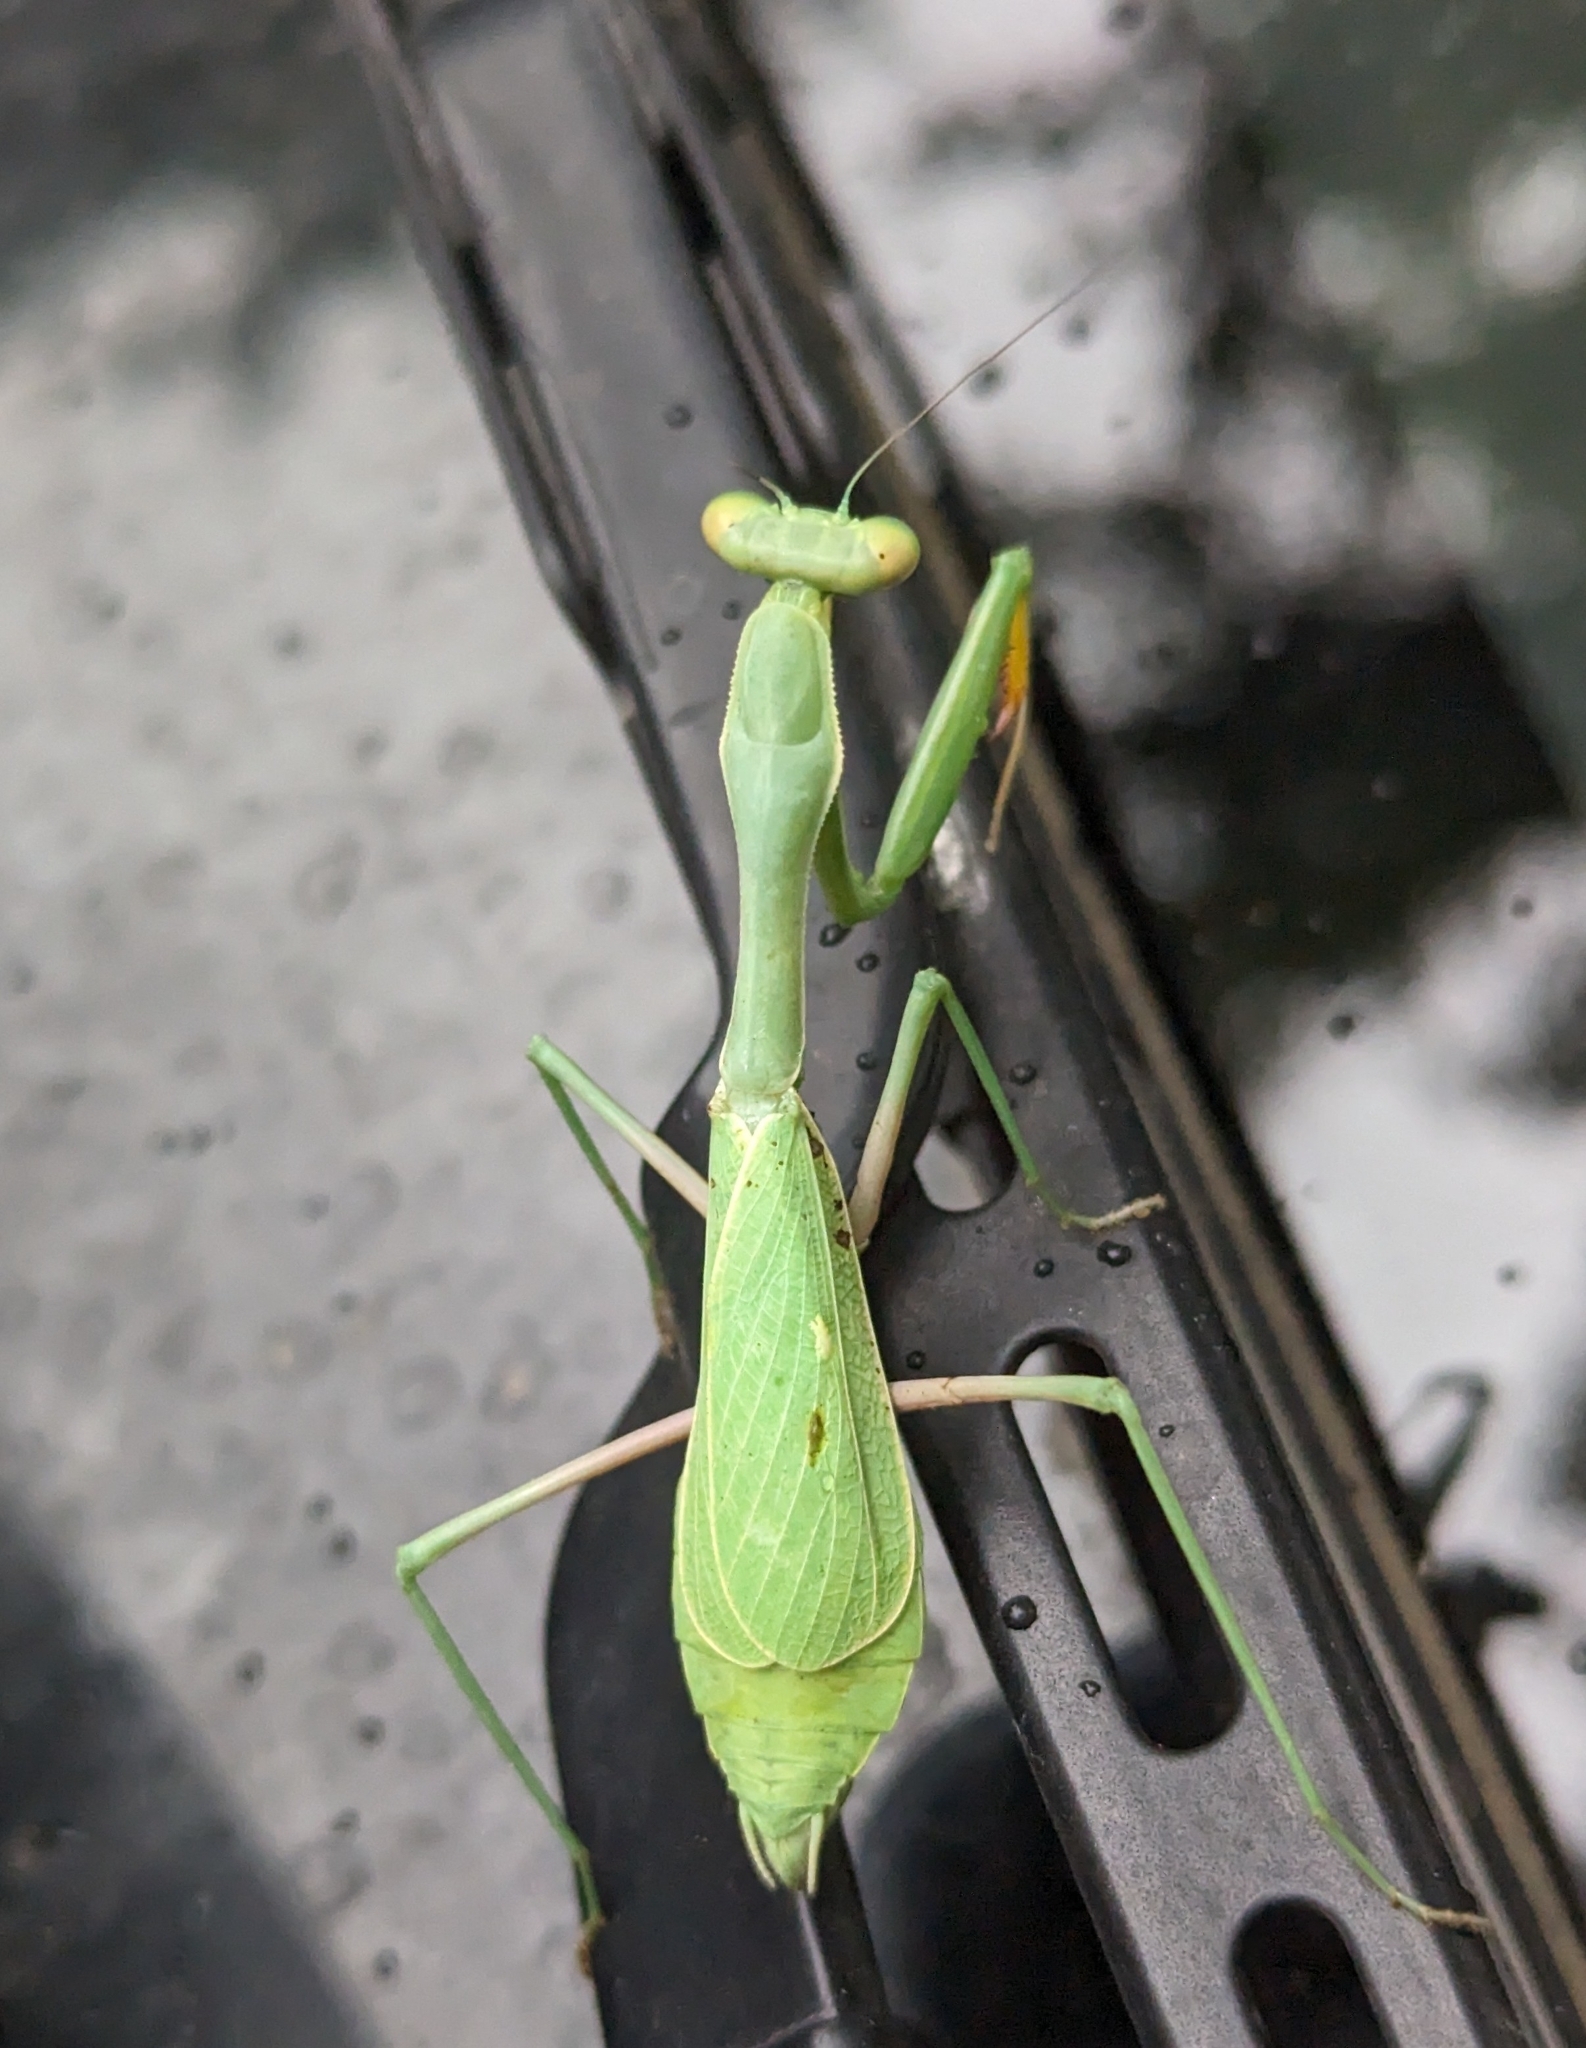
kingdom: Animalia
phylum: Arthropoda
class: Insecta
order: Mantodea
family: Mantidae
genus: Stagmomantis
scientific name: Stagmomantis limbata
